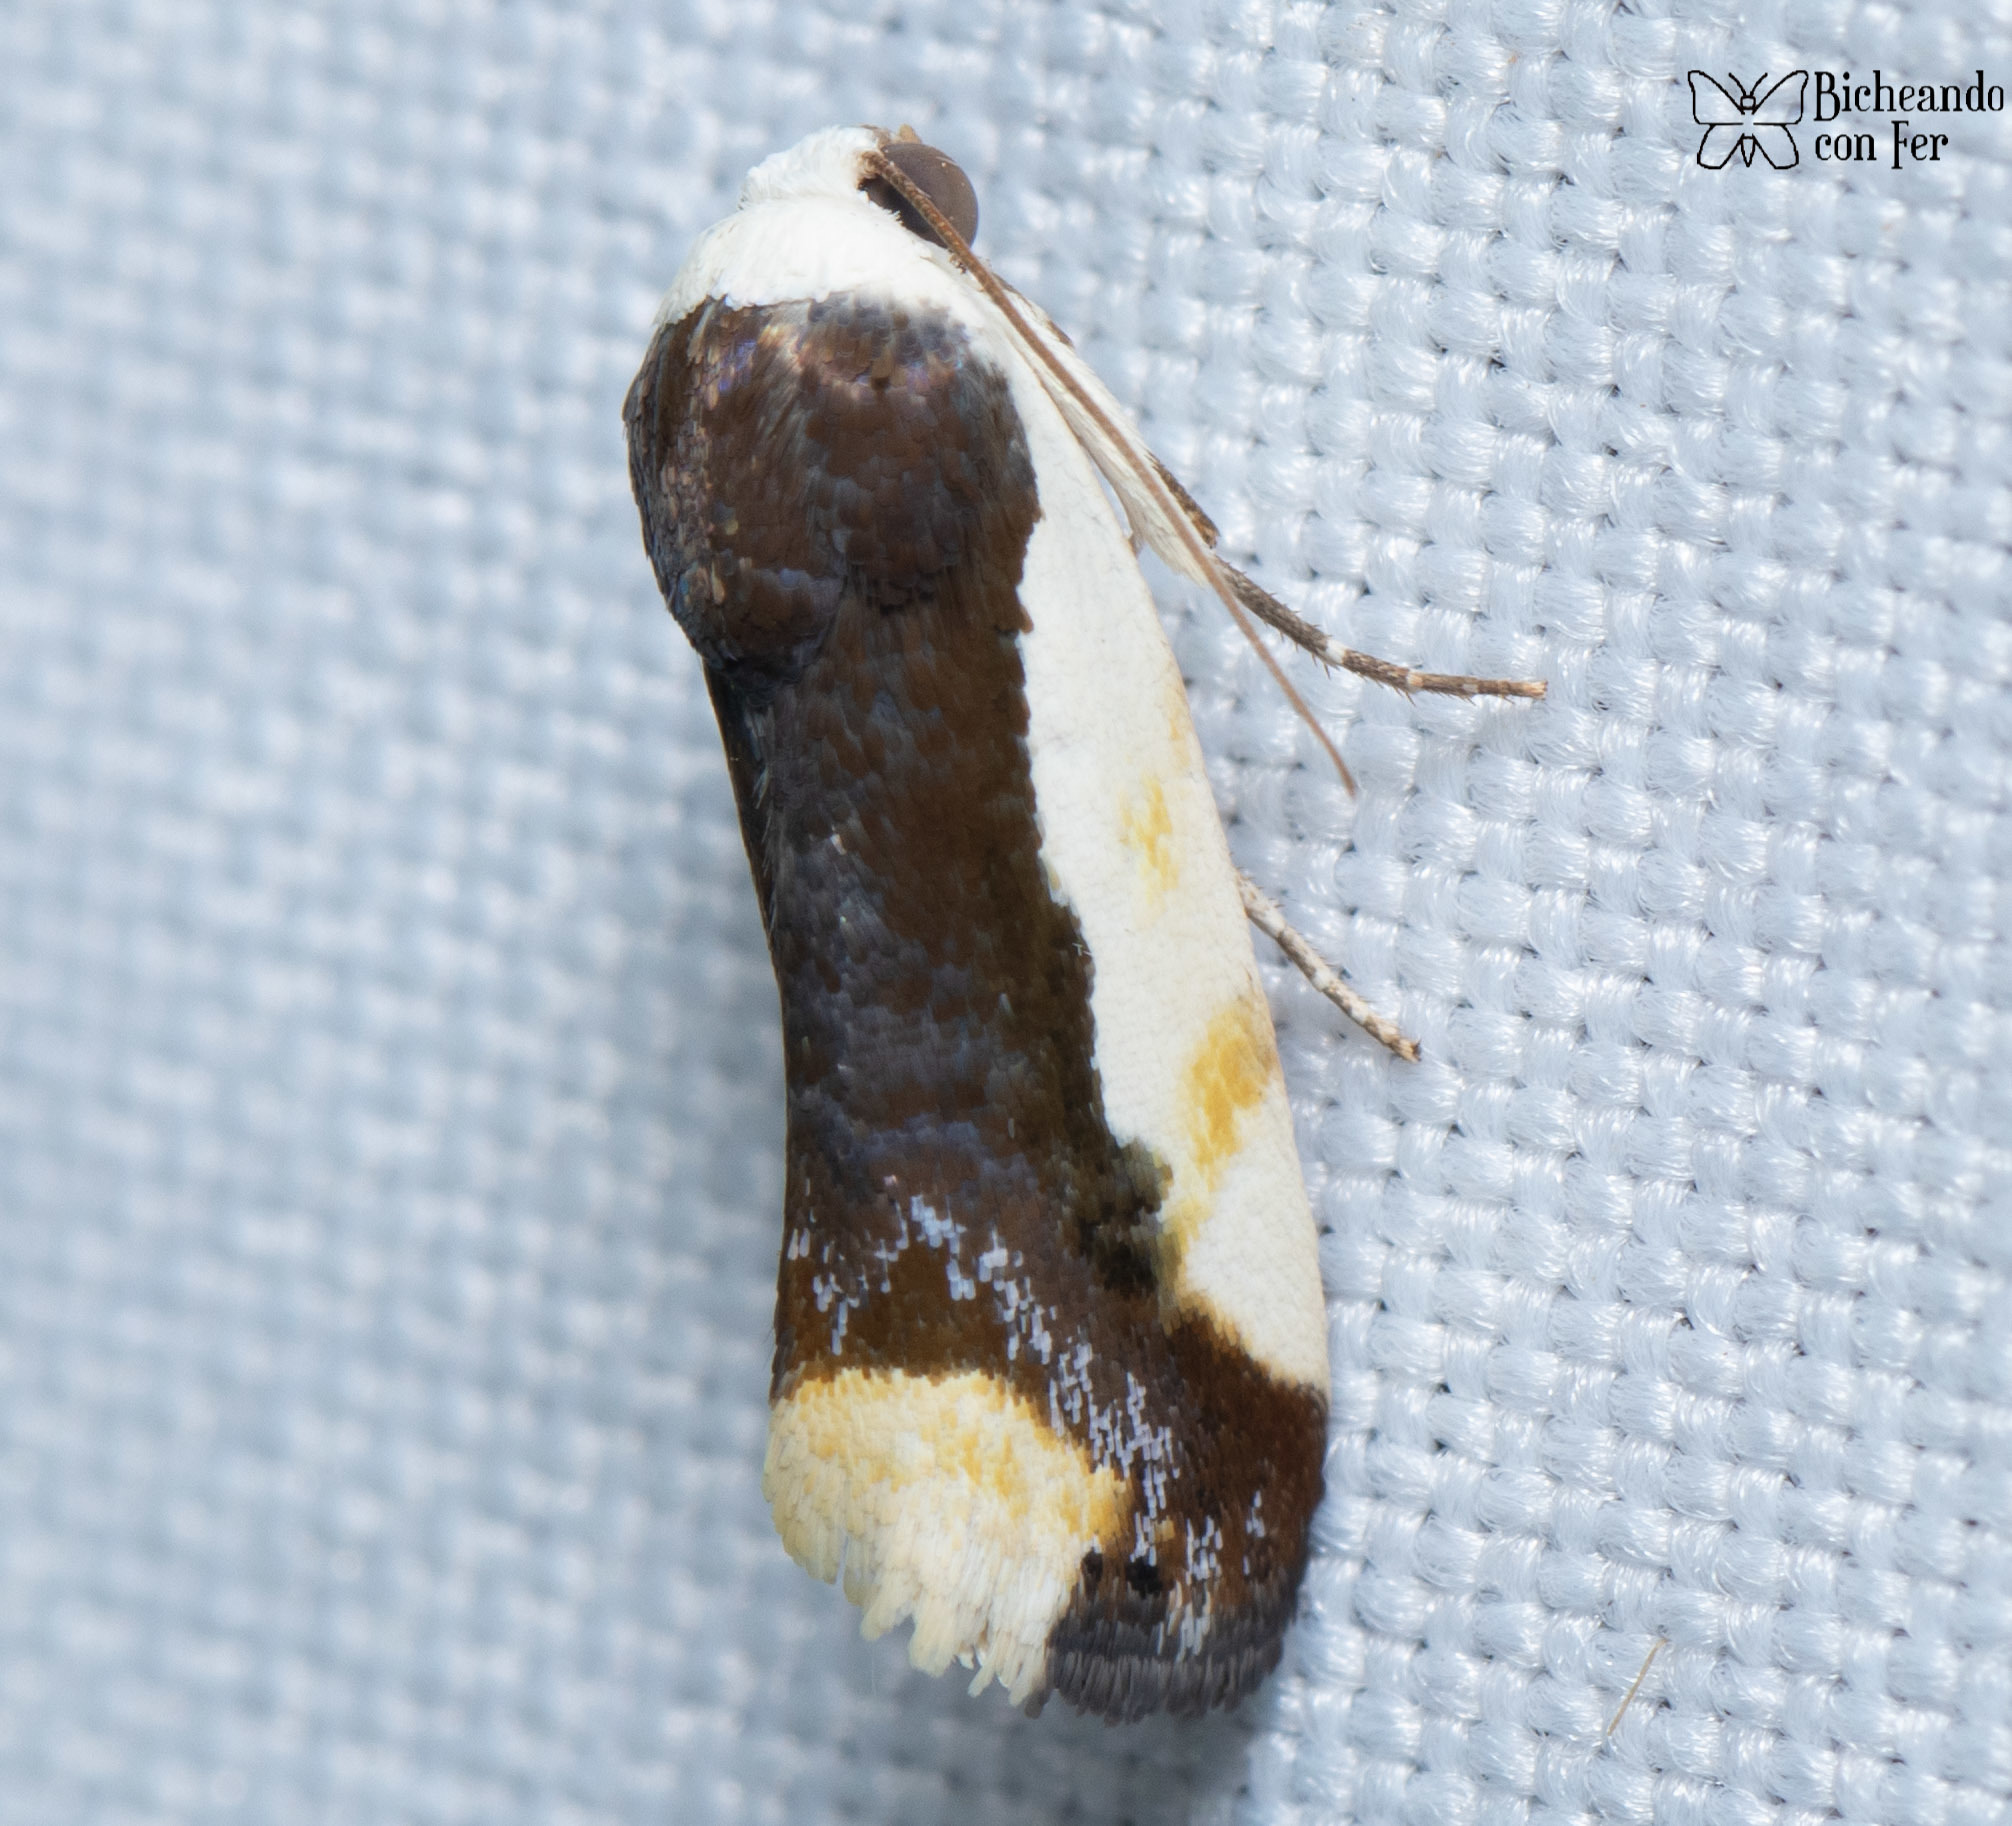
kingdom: Animalia
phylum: Arthropoda
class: Insecta
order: Lepidoptera
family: Noctuidae
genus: Acontia
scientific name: Acontia Tarache expolita
